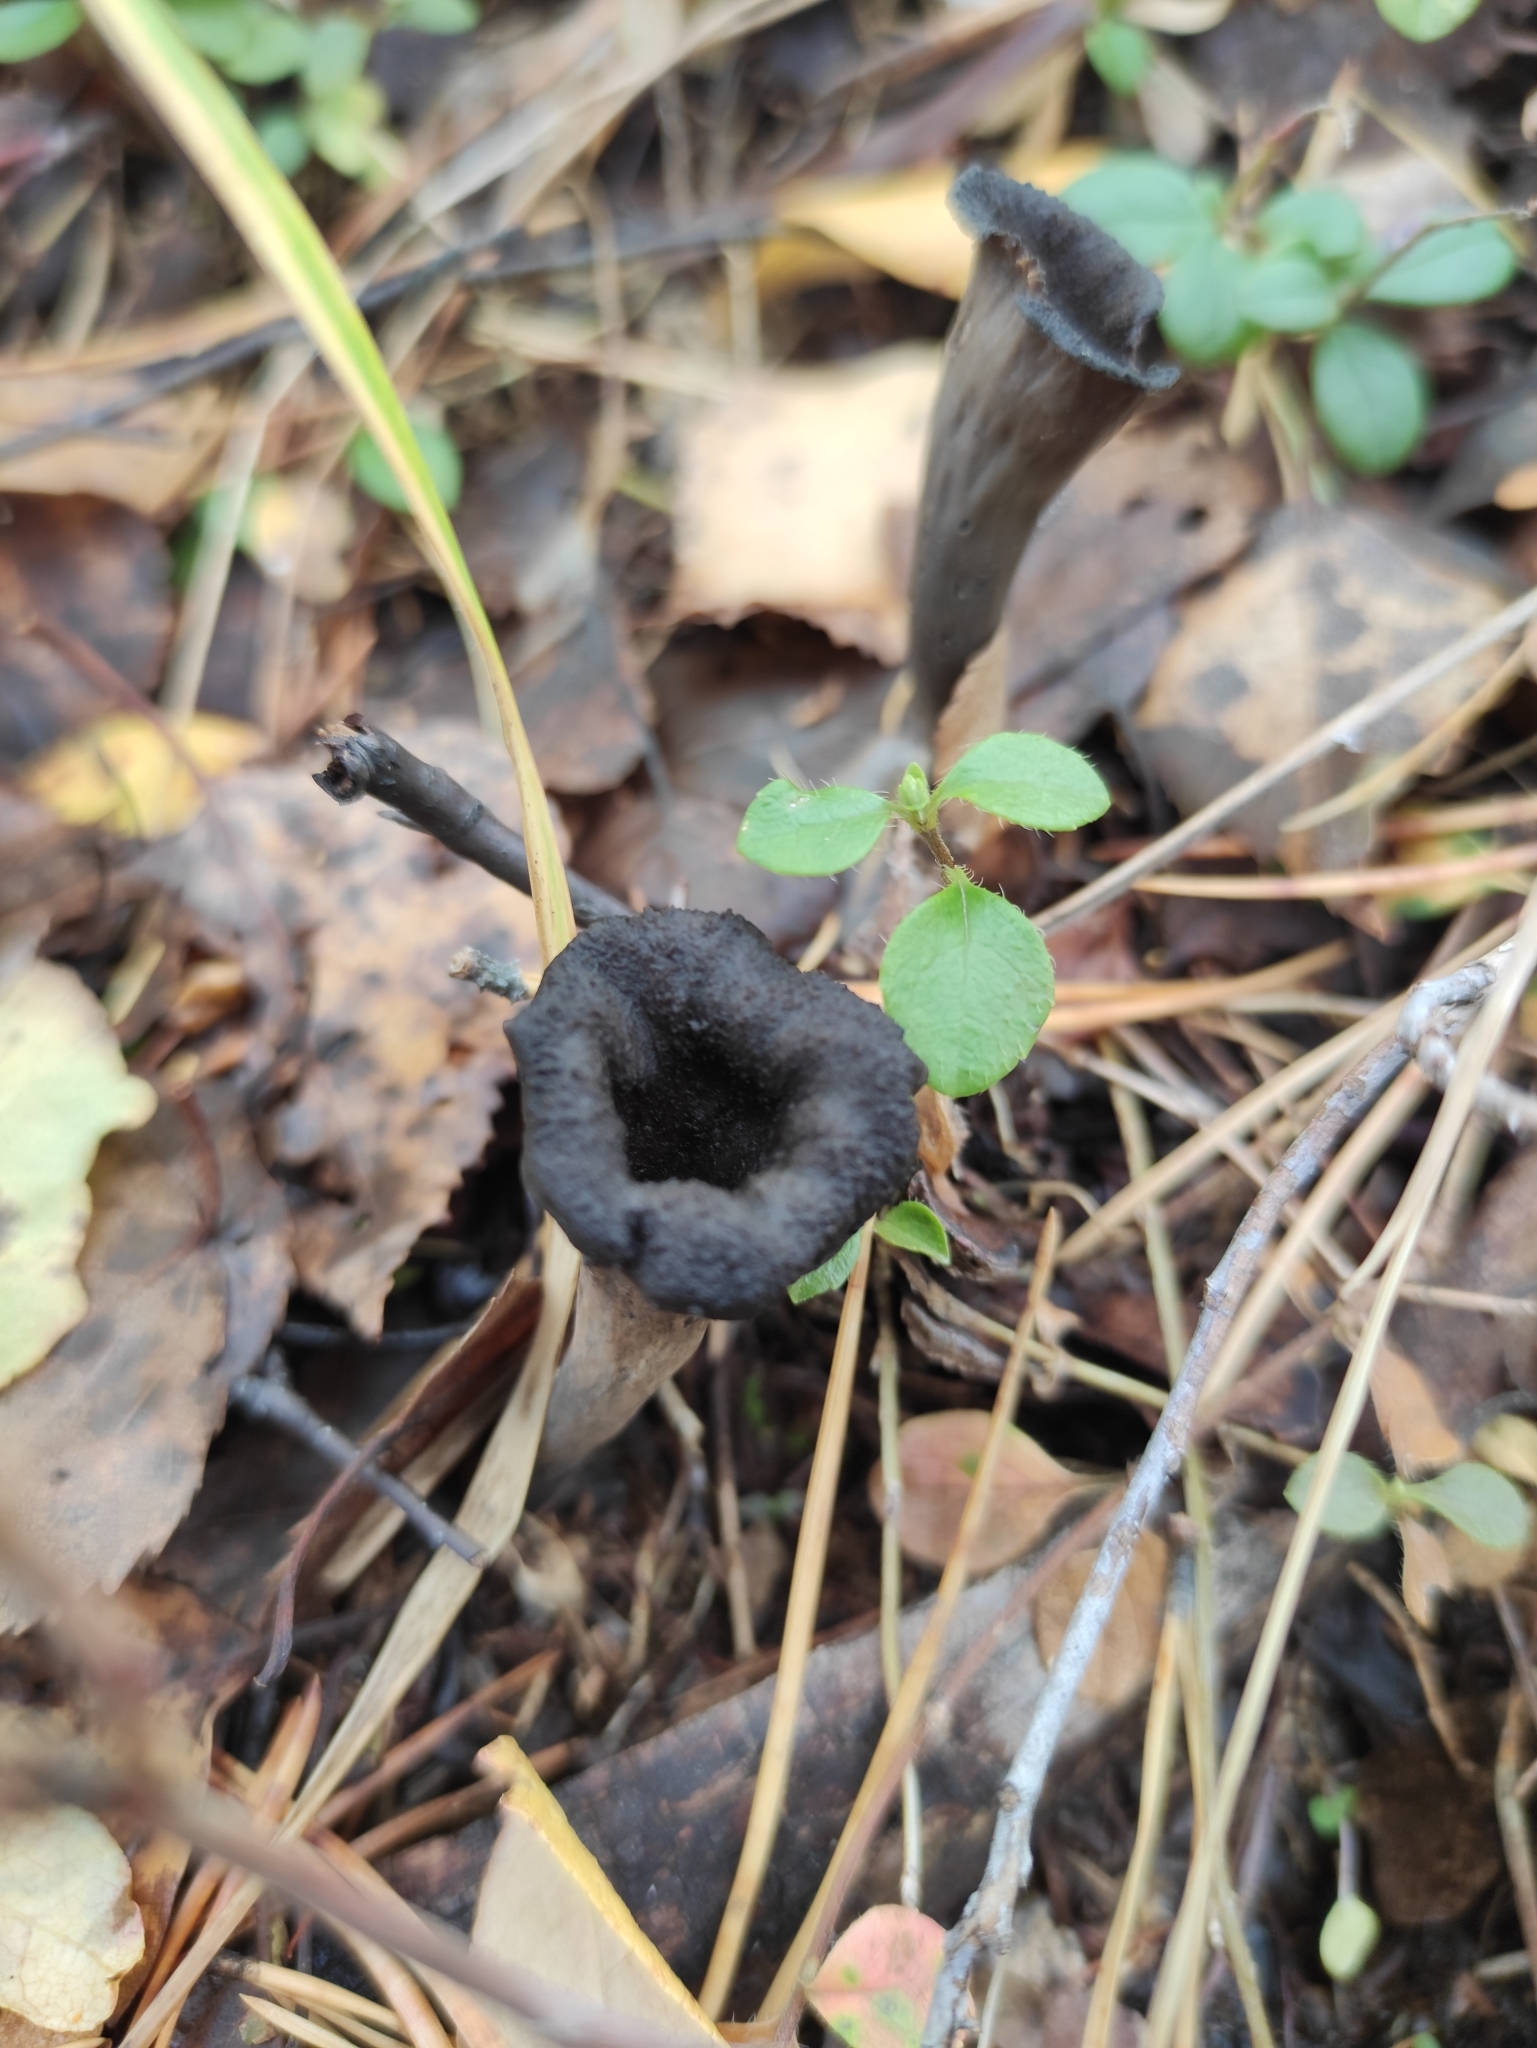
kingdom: Fungi
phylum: Basidiomycota
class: Agaricomycetes
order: Cantharellales
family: Hydnaceae
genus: Craterellus
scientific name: Craterellus cornucopioides
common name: Horn of plenty
